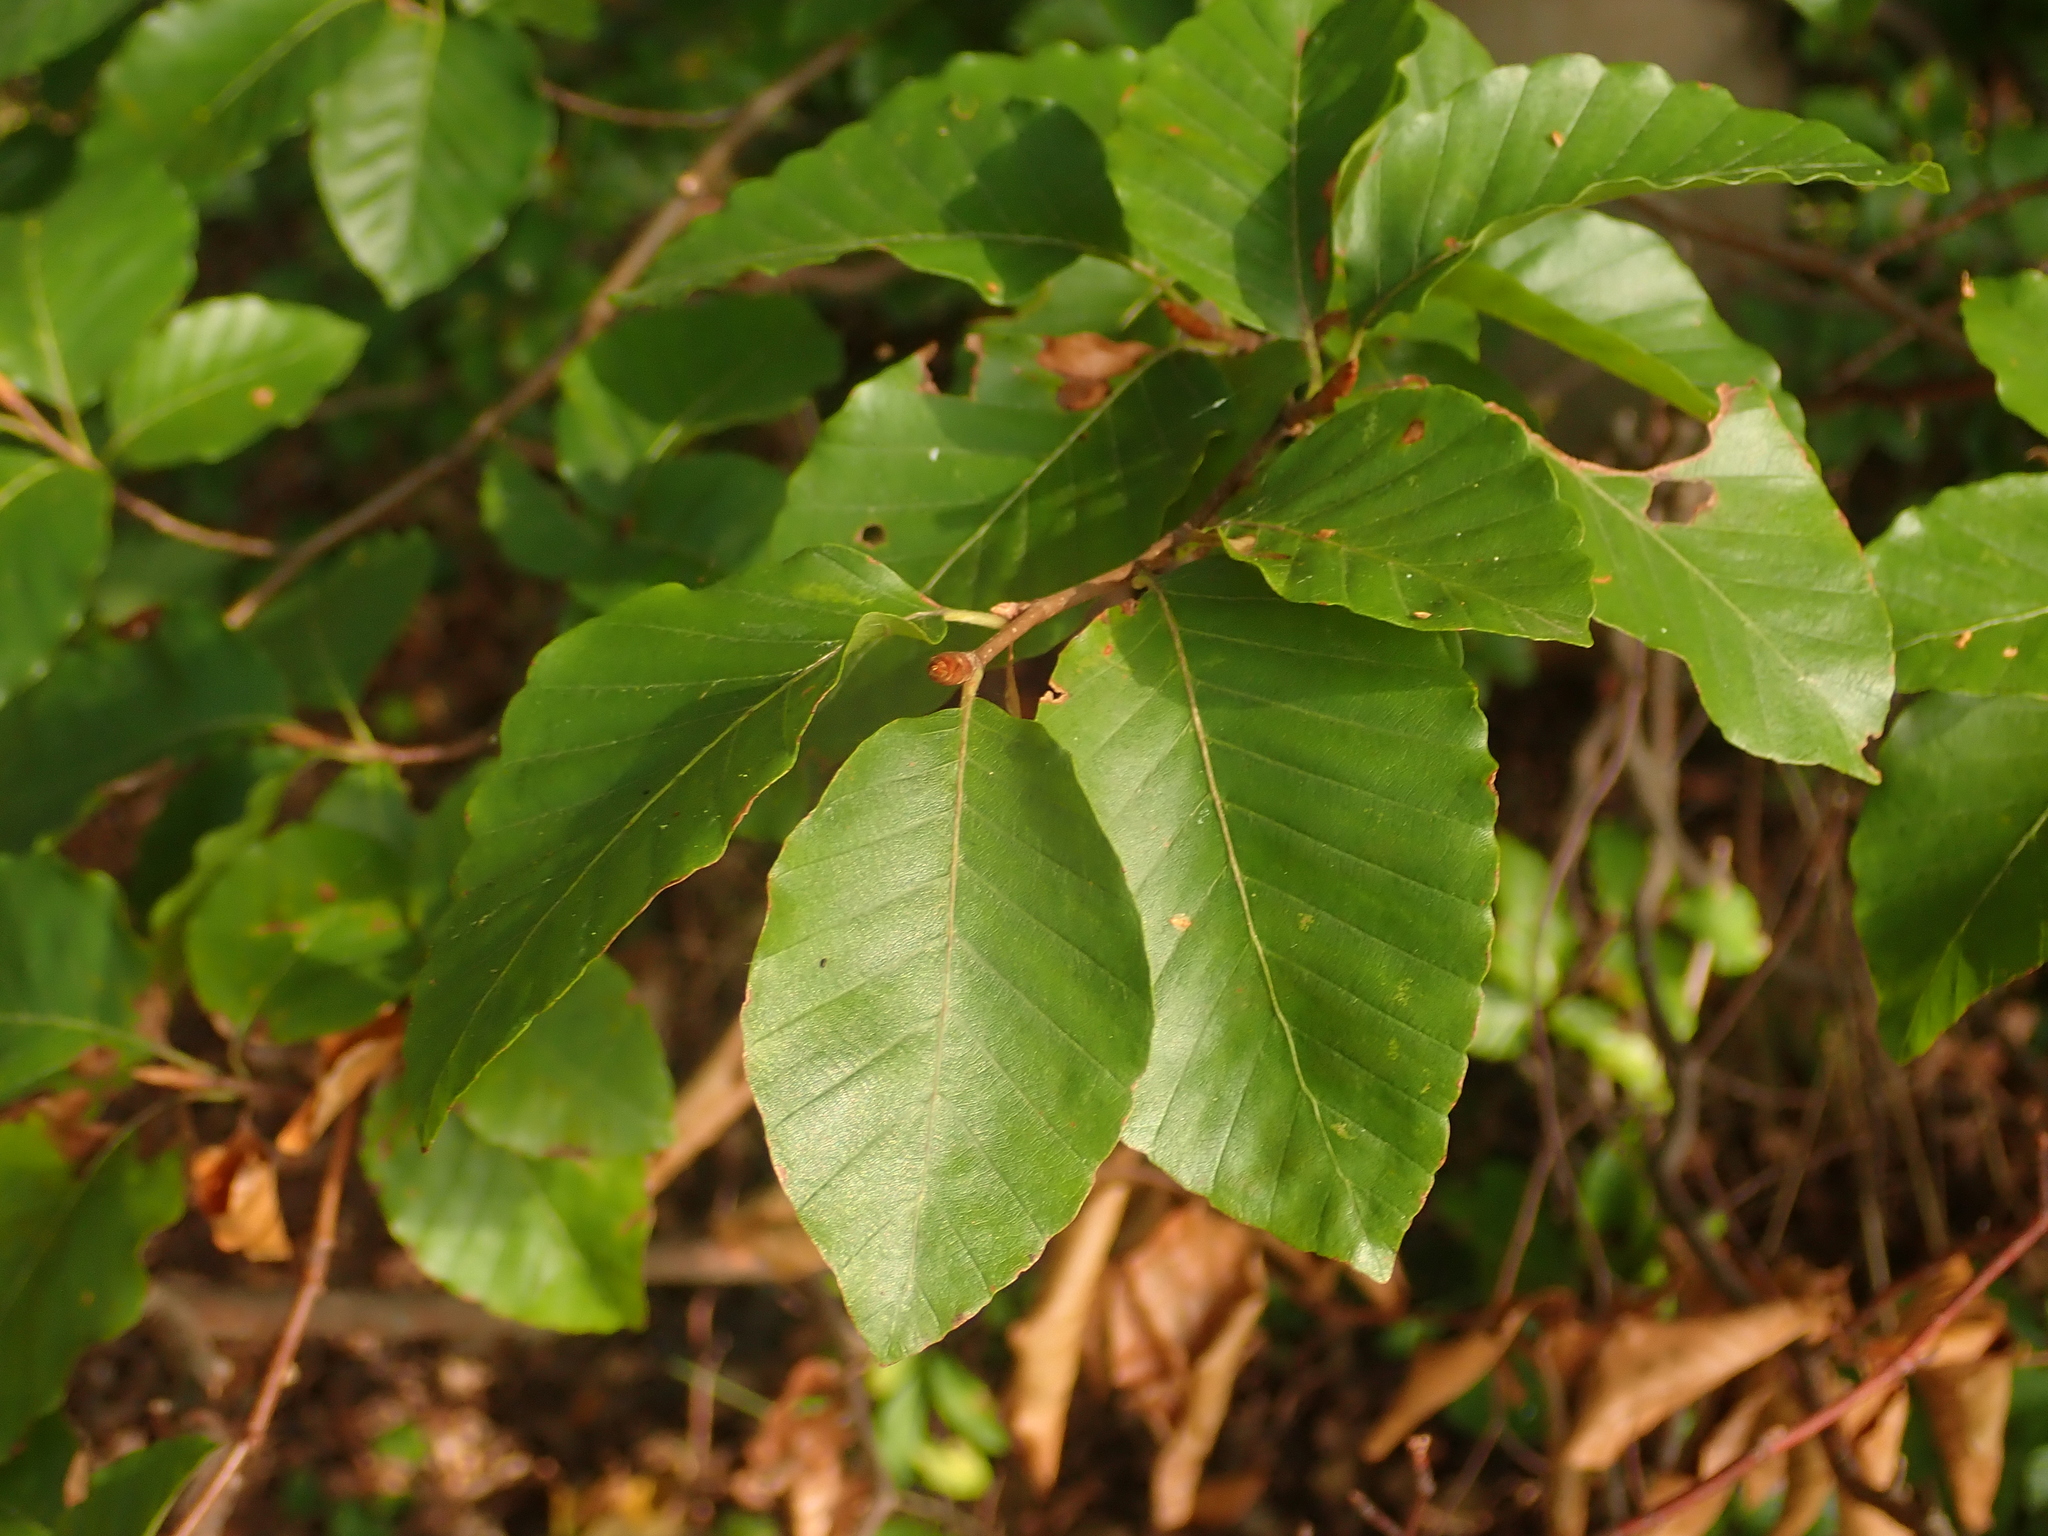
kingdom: Plantae
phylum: Tracheophyta
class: Magnoliopsida
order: Fagales
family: Fagaceae
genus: Fagus
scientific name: Fagus sylvatica
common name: Beech
